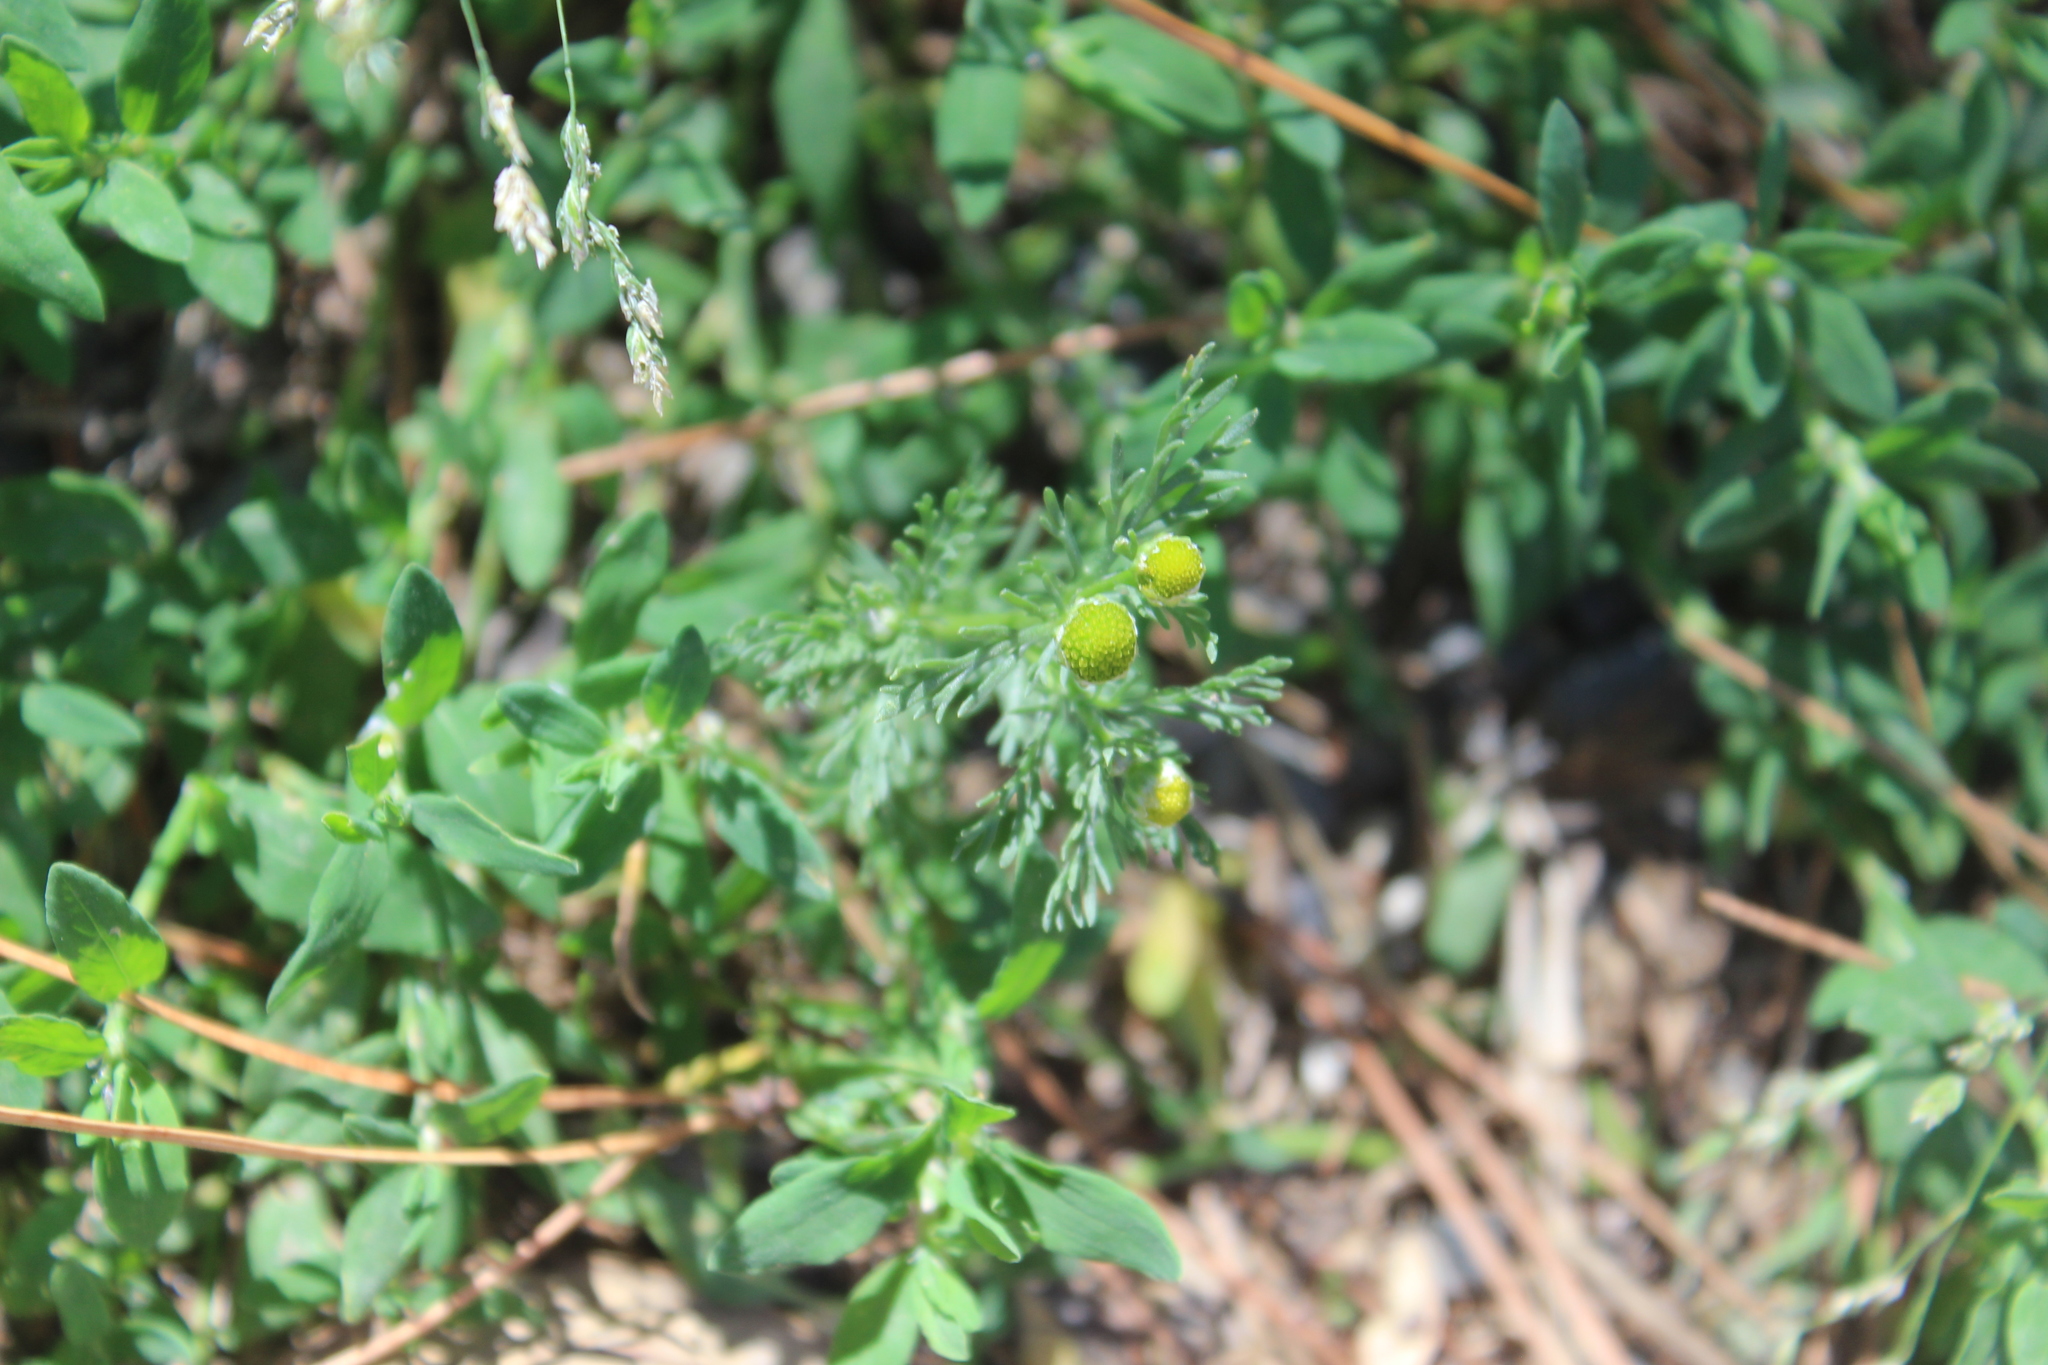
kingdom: Plantae
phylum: Tracheophyta
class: Magnoliopsida
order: Asterales
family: Asteraceae
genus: Matricaria
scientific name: Matricaria discoidea
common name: Disc mayweed
